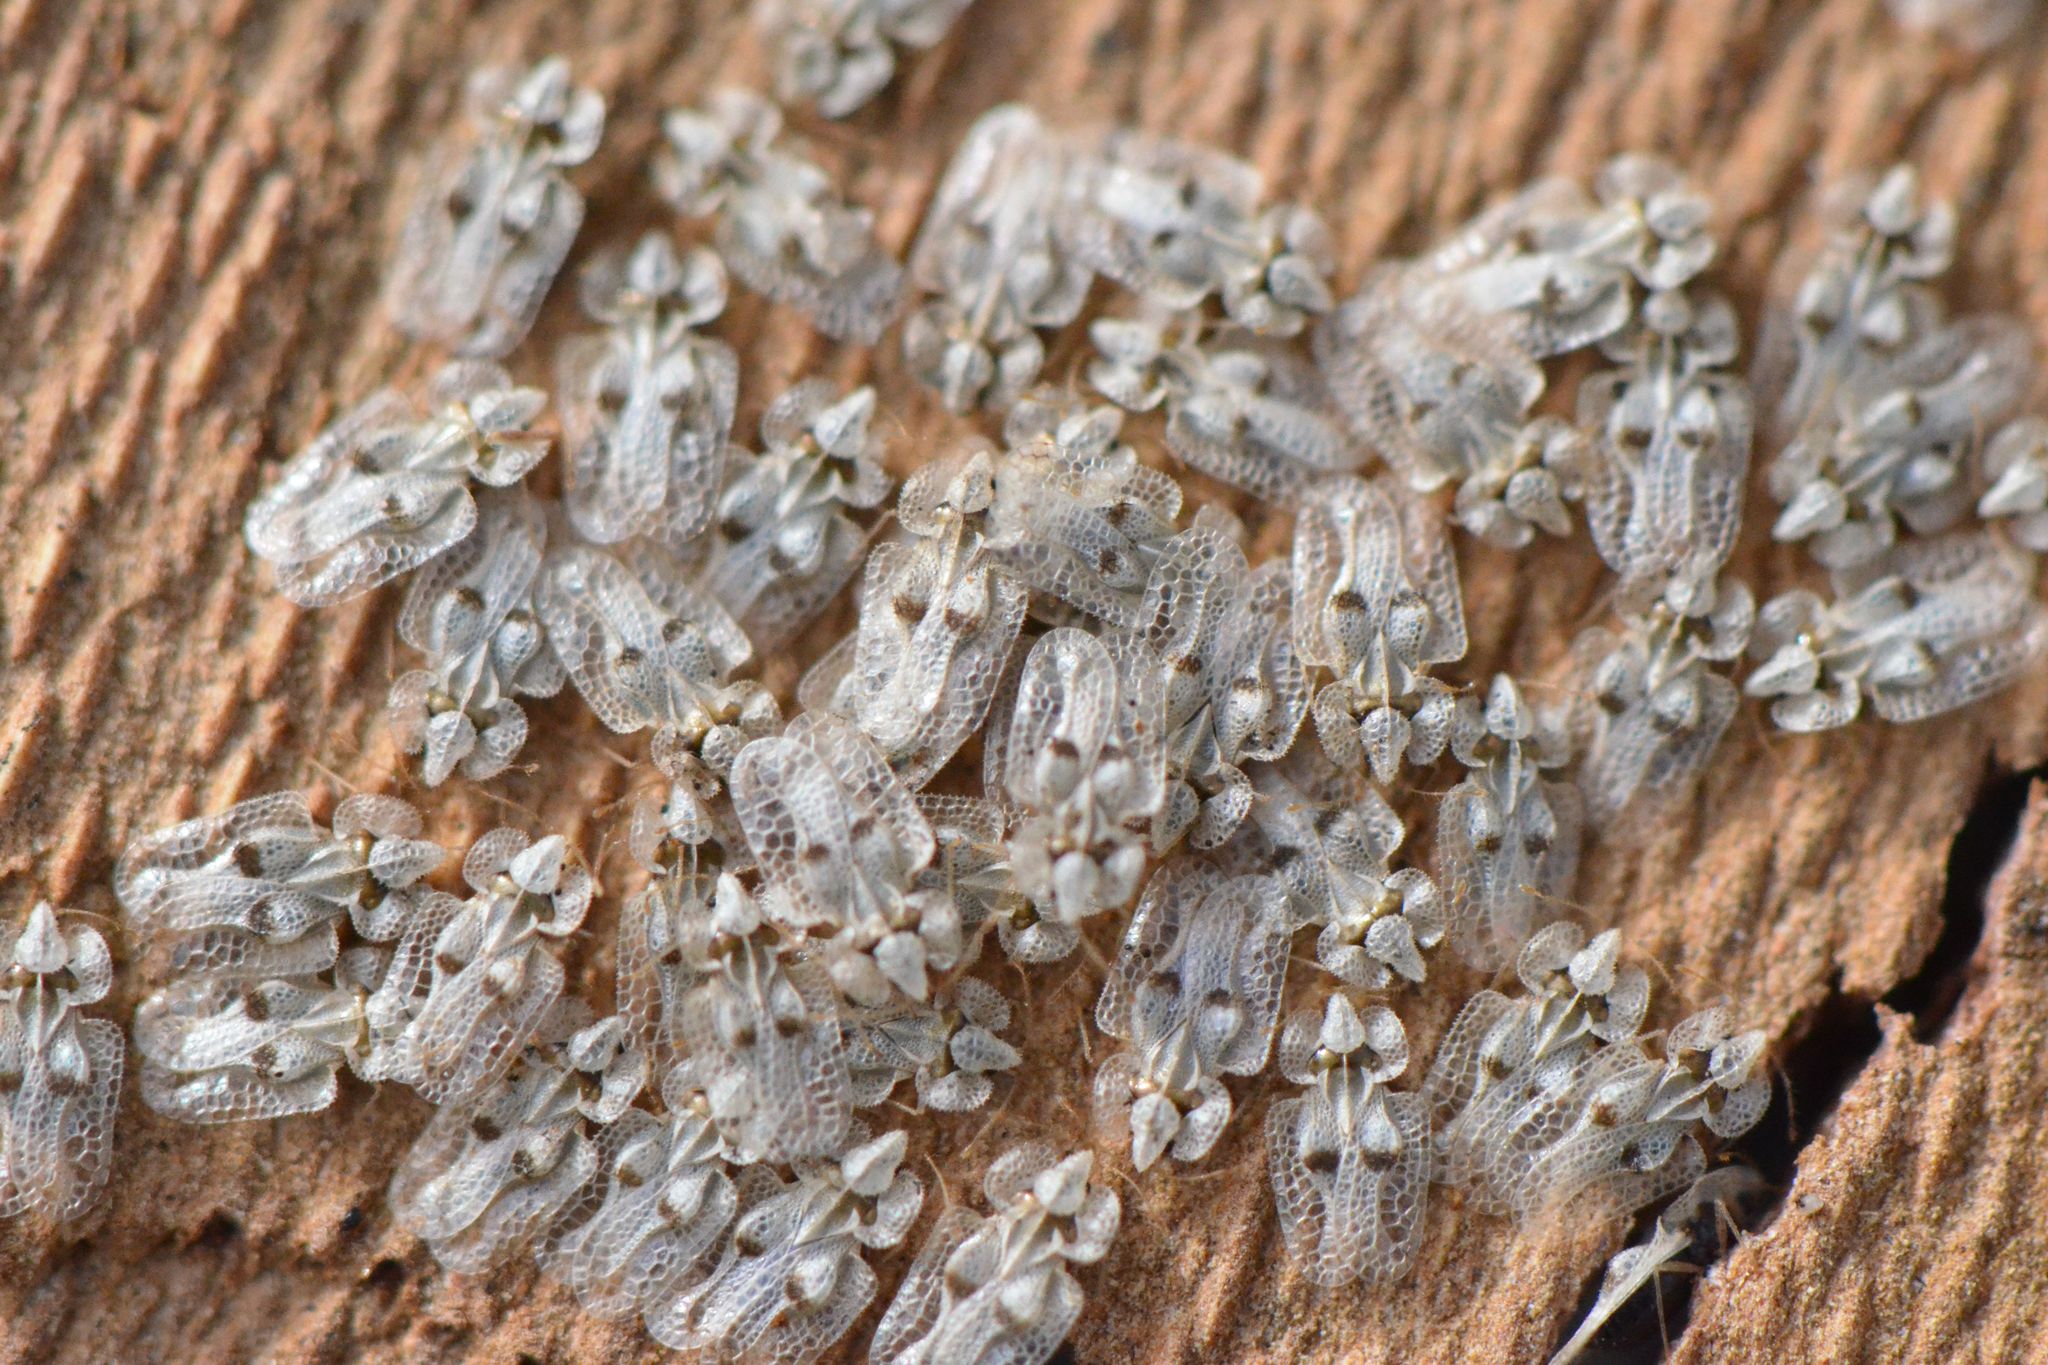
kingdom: Animalia
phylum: Arthropoda
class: Insecta
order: Hemiptera
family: Tingidae
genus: Corythucha
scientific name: Corythucha ciliata
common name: Sycamore lace bug
